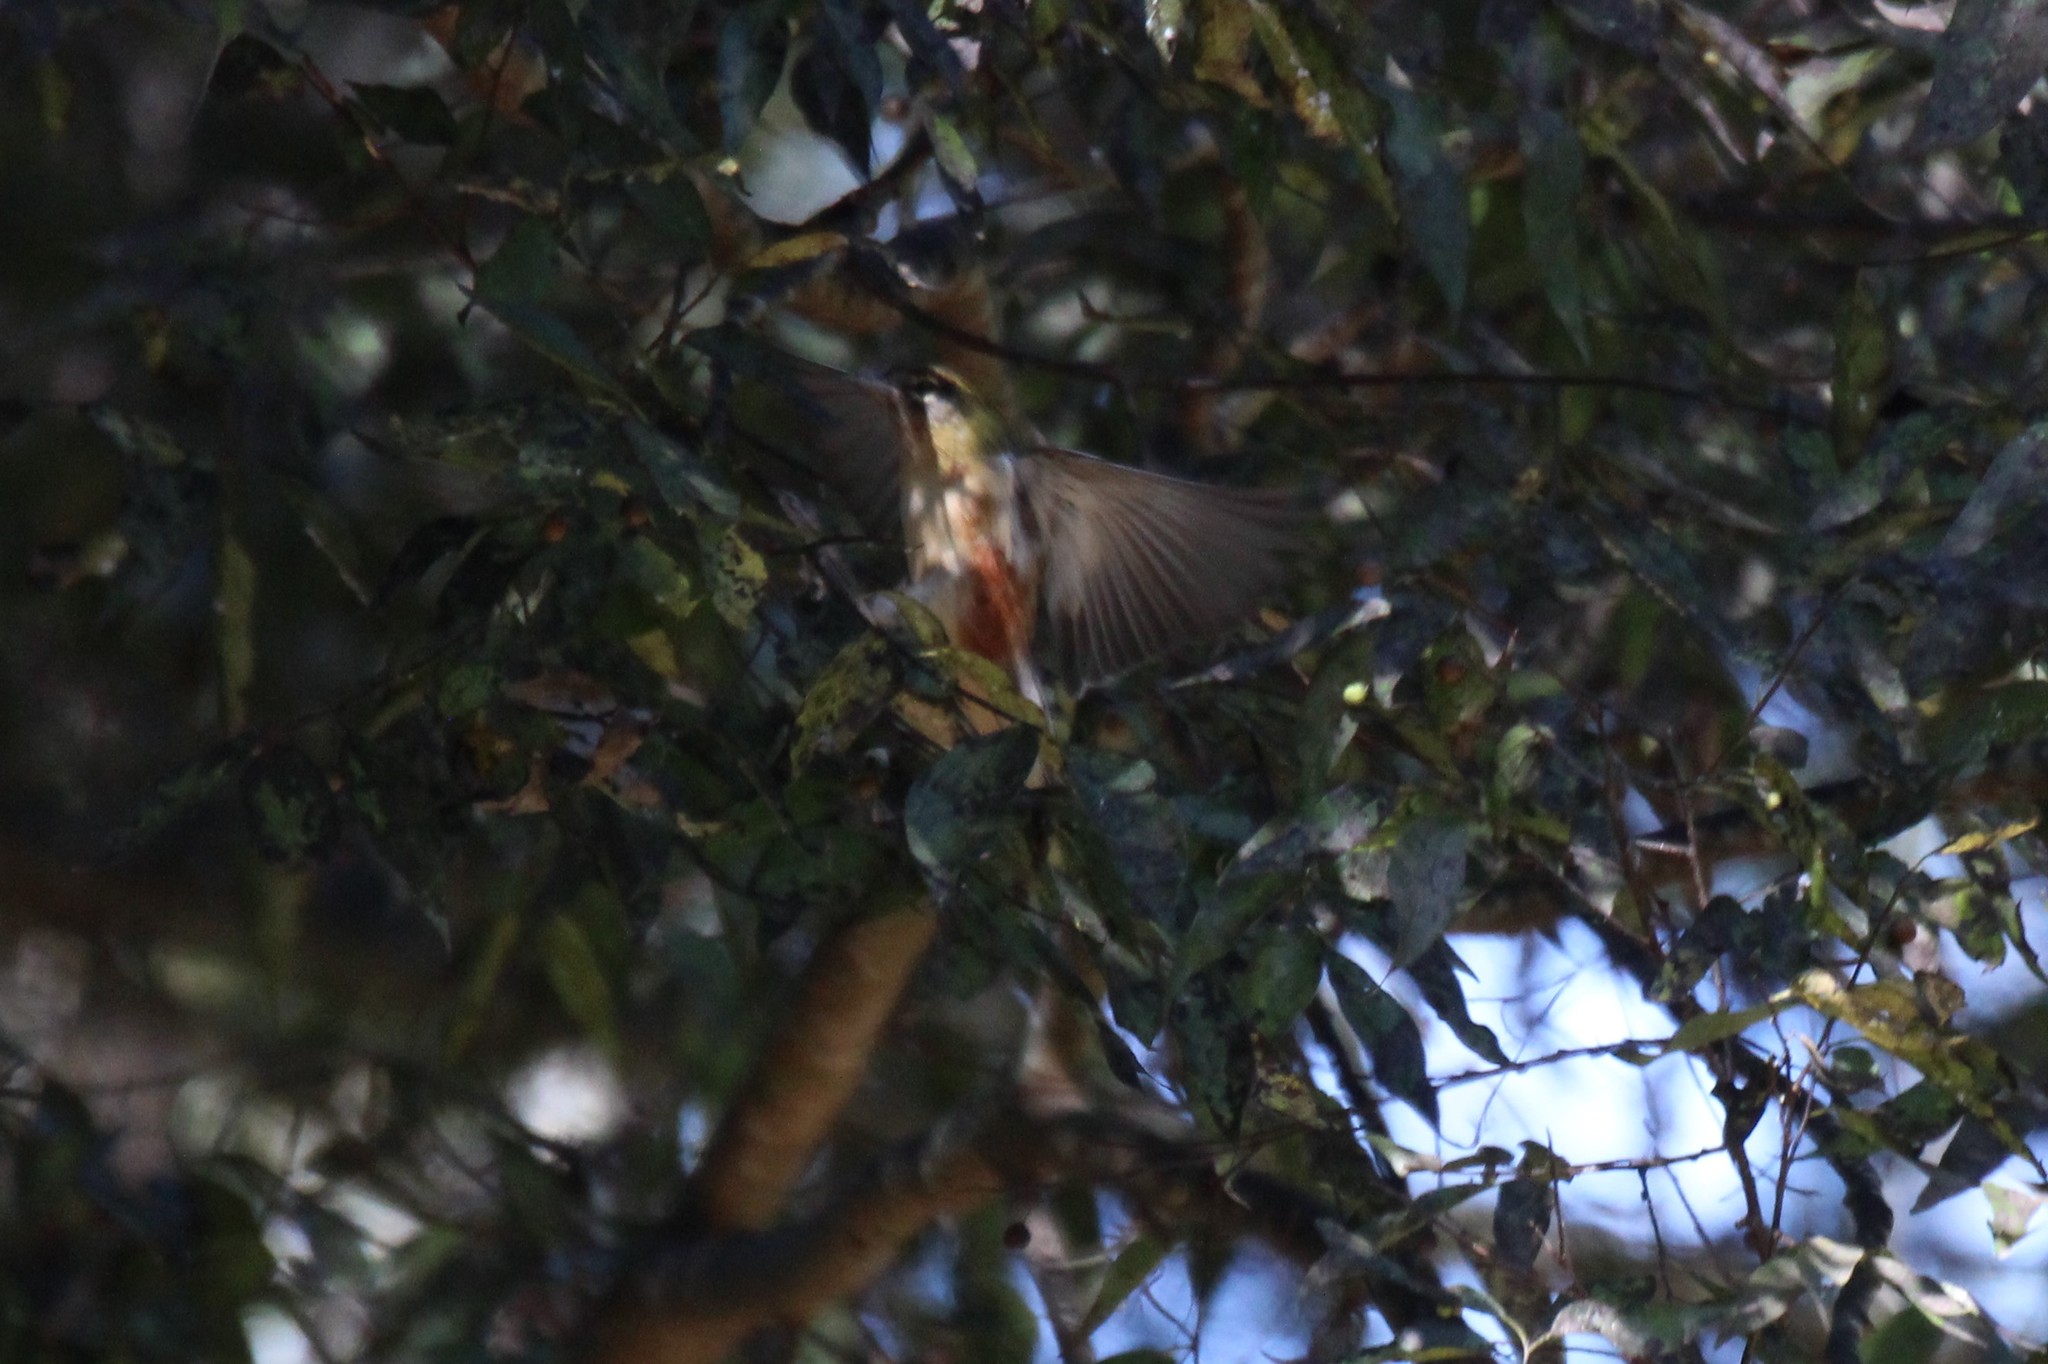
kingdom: Animalia
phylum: Chordata
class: Aves
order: Passeriformes
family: Parulidae
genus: Setophaga
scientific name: Setophaga castanea
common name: Bay-breasted warbler
